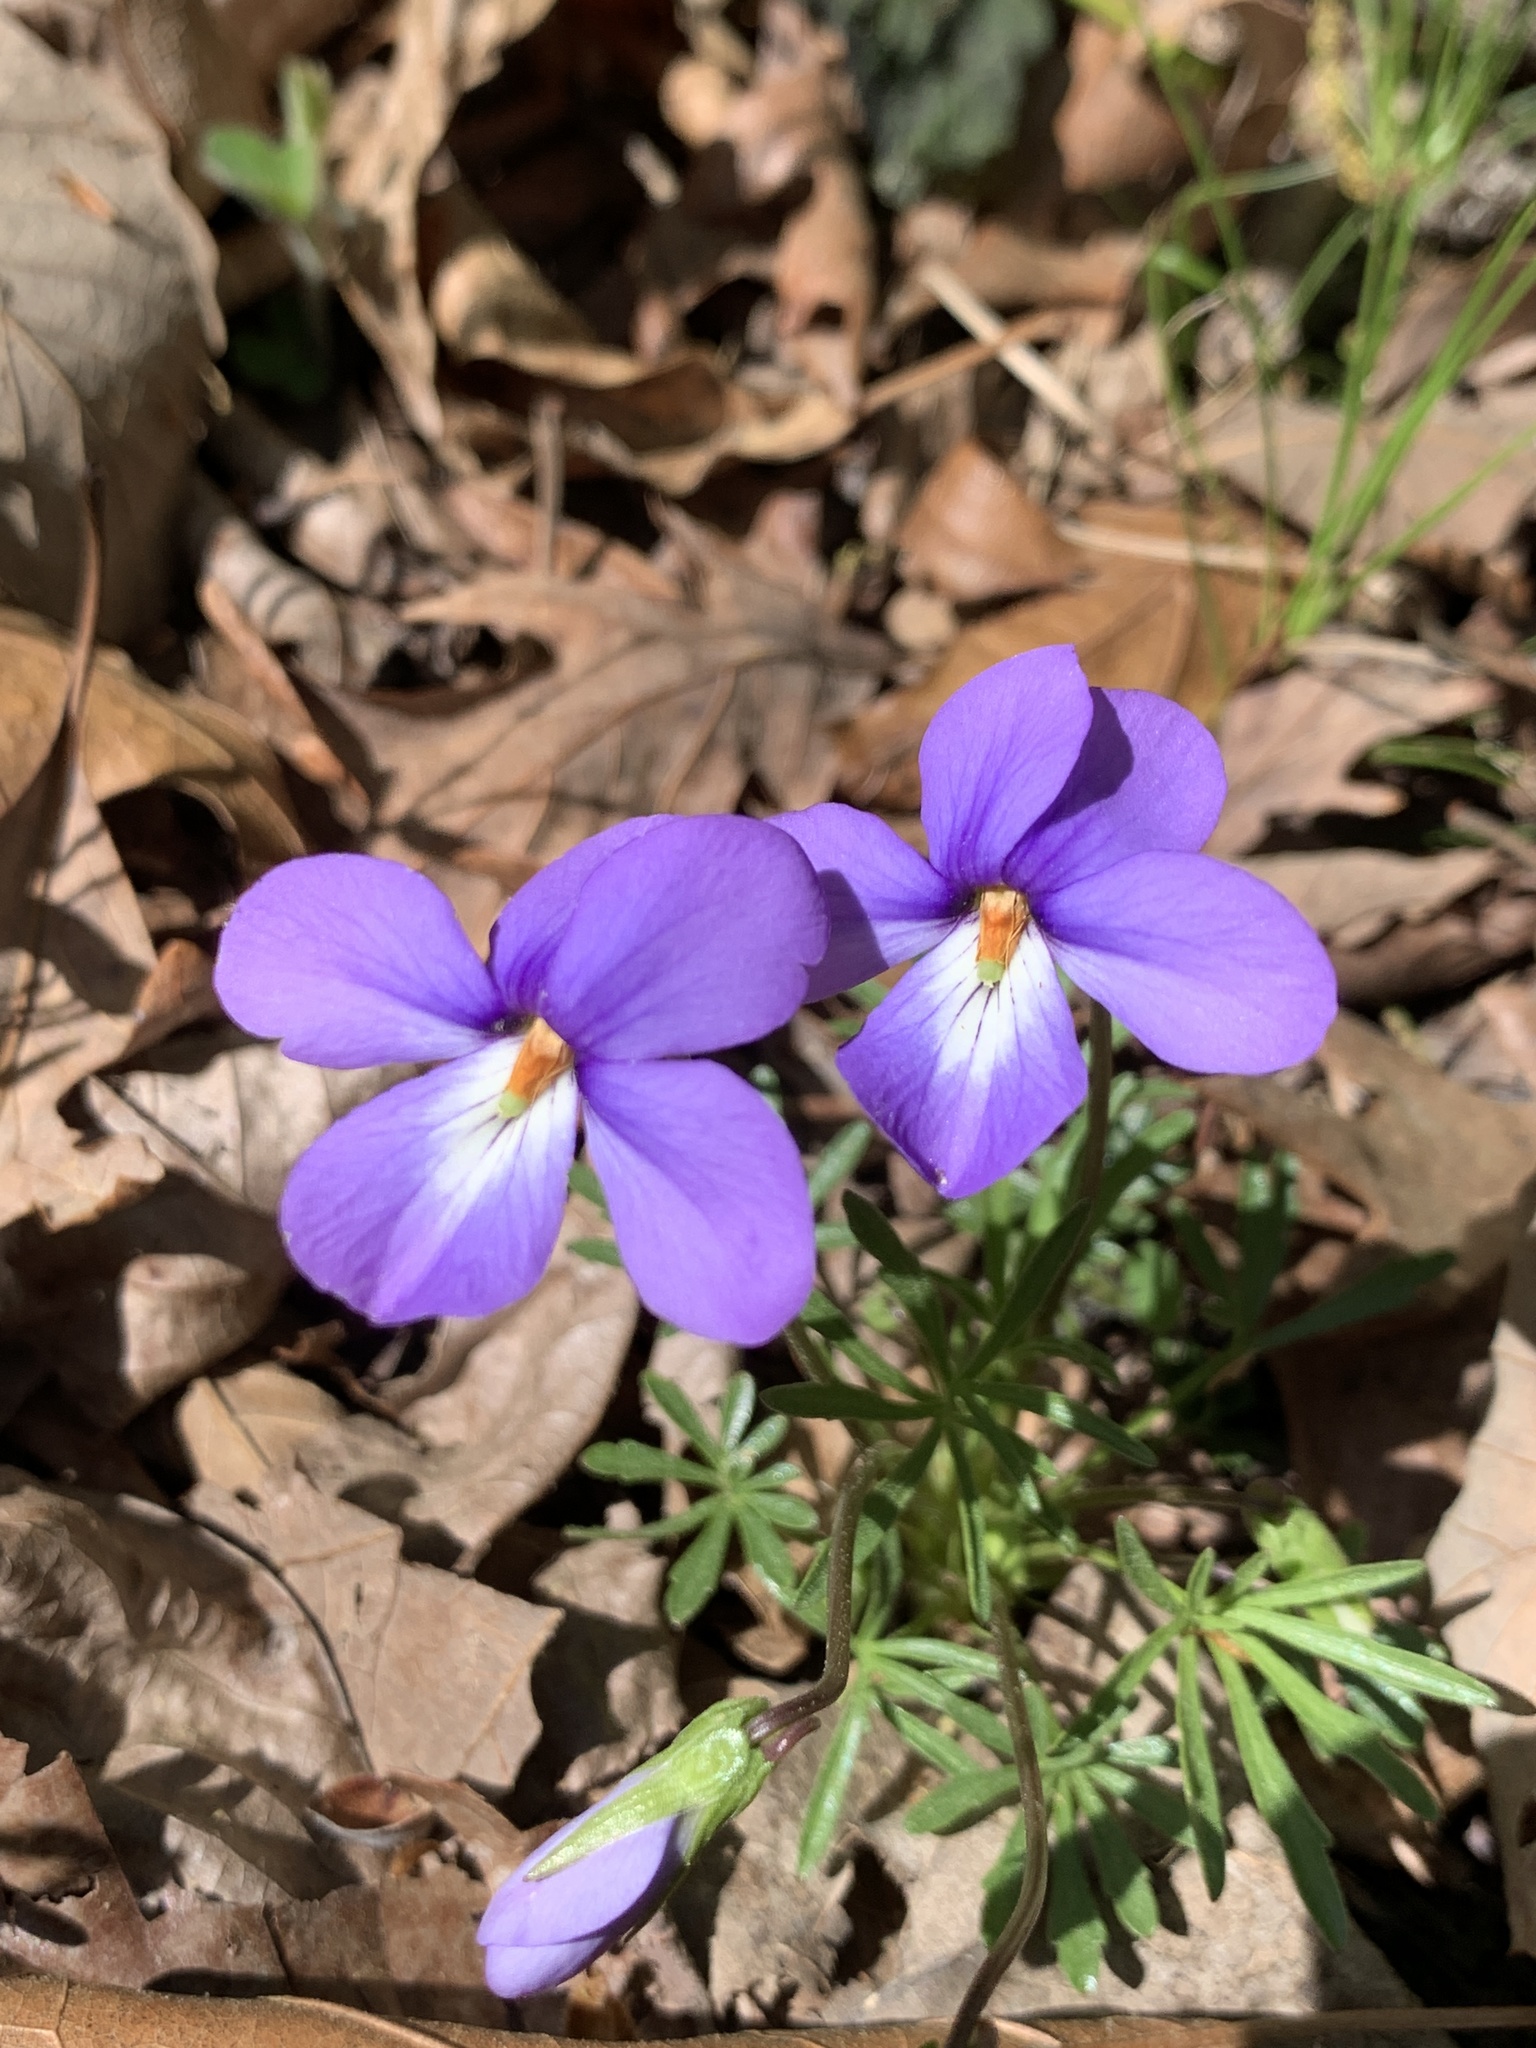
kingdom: Plantae
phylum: Tracheophyta
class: Magnoliopsida
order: Malpighiales
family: Violaceae
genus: Viola
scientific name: Viola pedata
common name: Pansy violet
